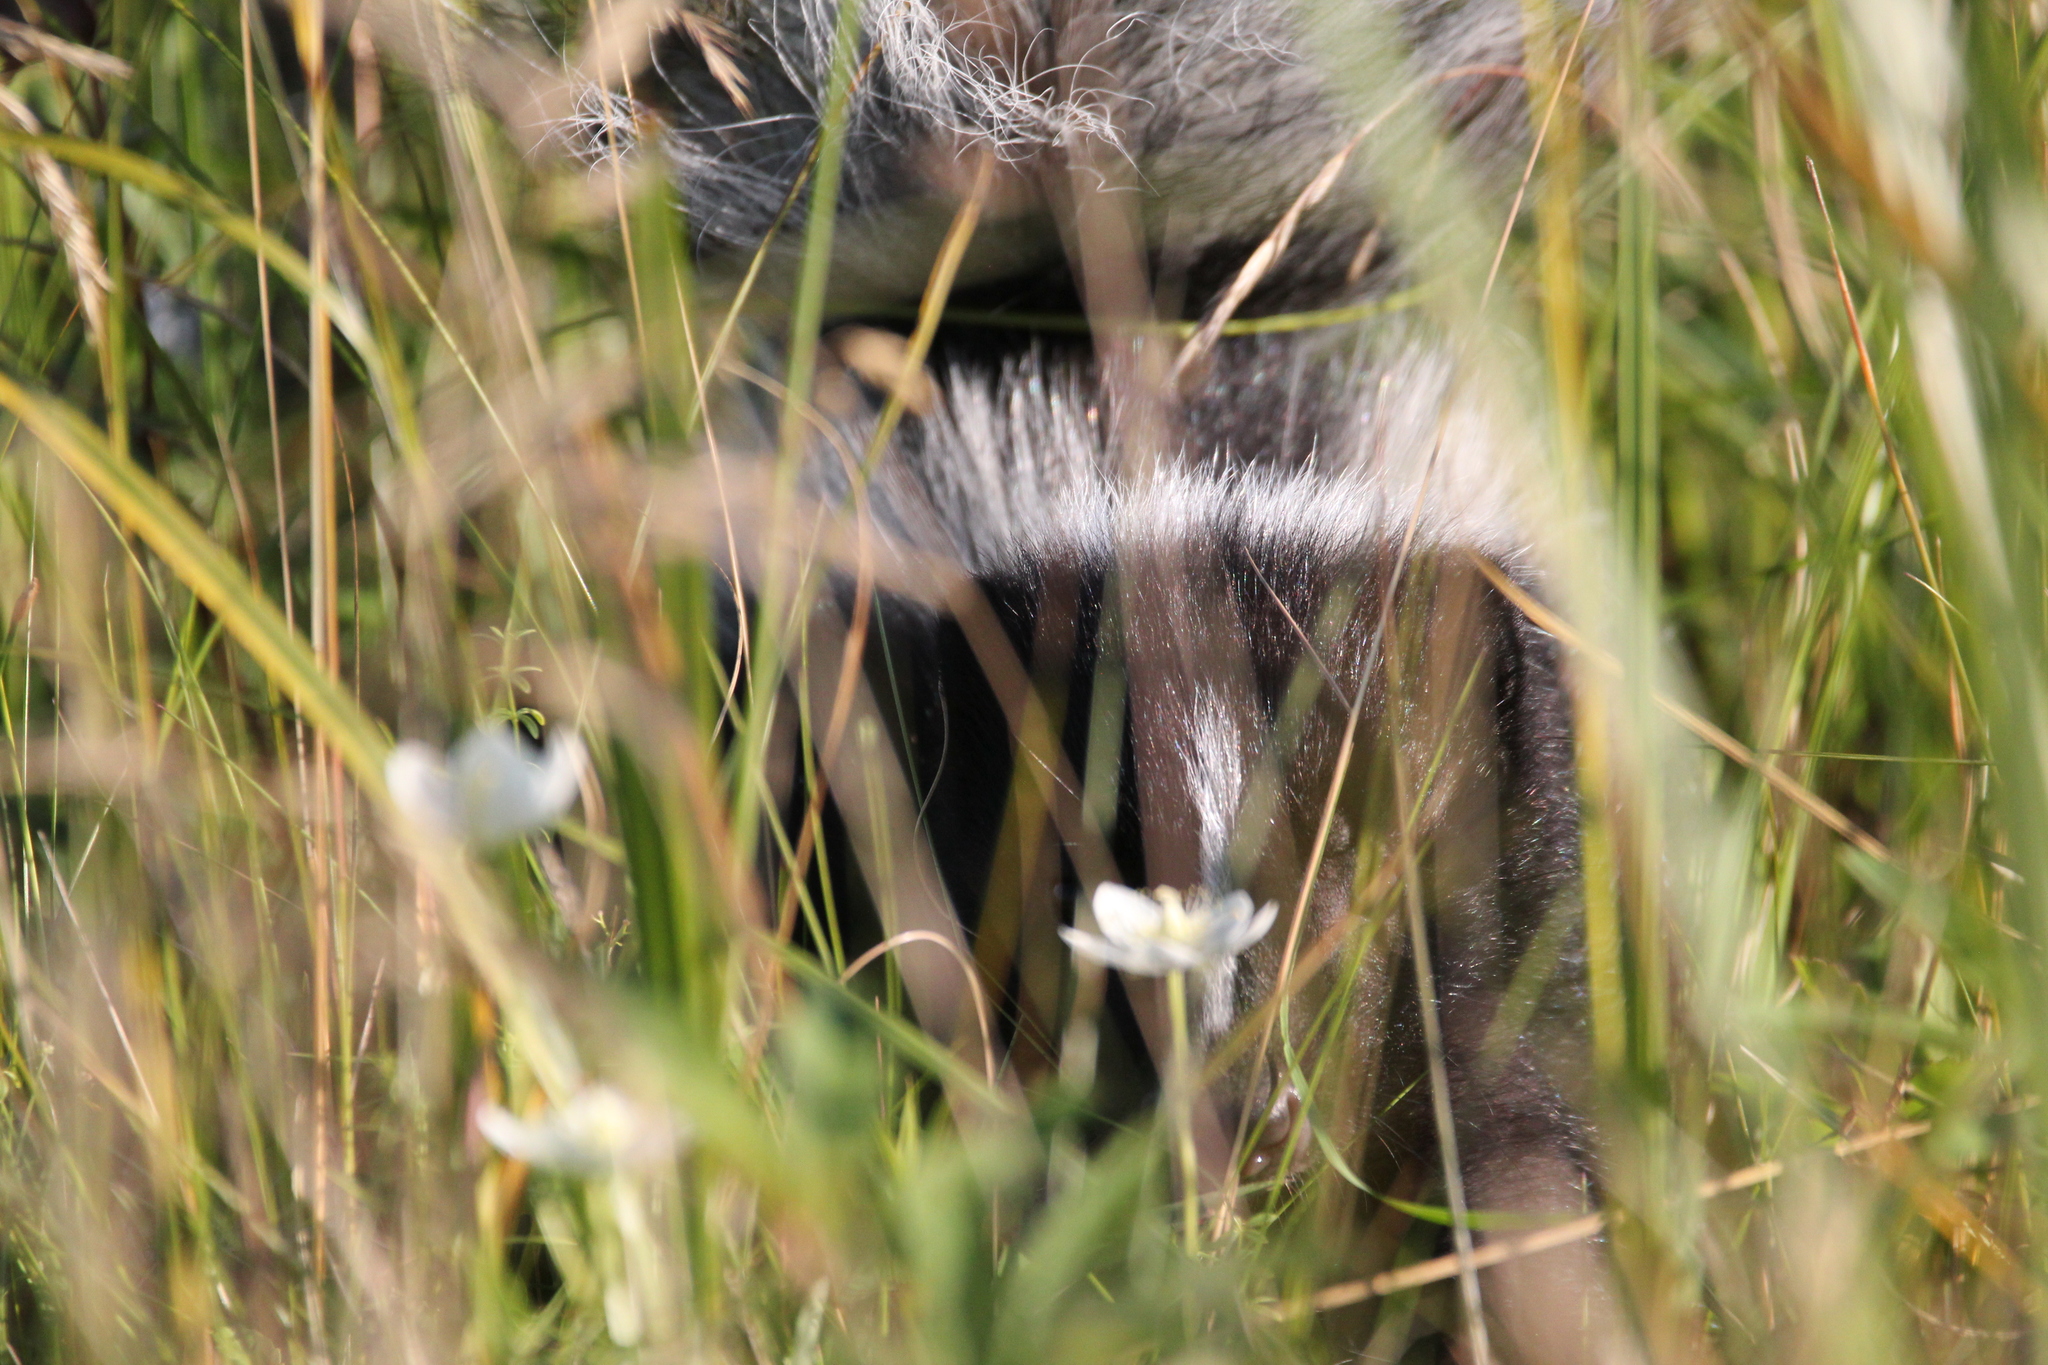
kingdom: Animalia
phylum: Chordata
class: Mammalia
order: Carnivora
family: Mephitidae
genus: Mephitis
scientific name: Mephitis mephitis
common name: Striped skunk
